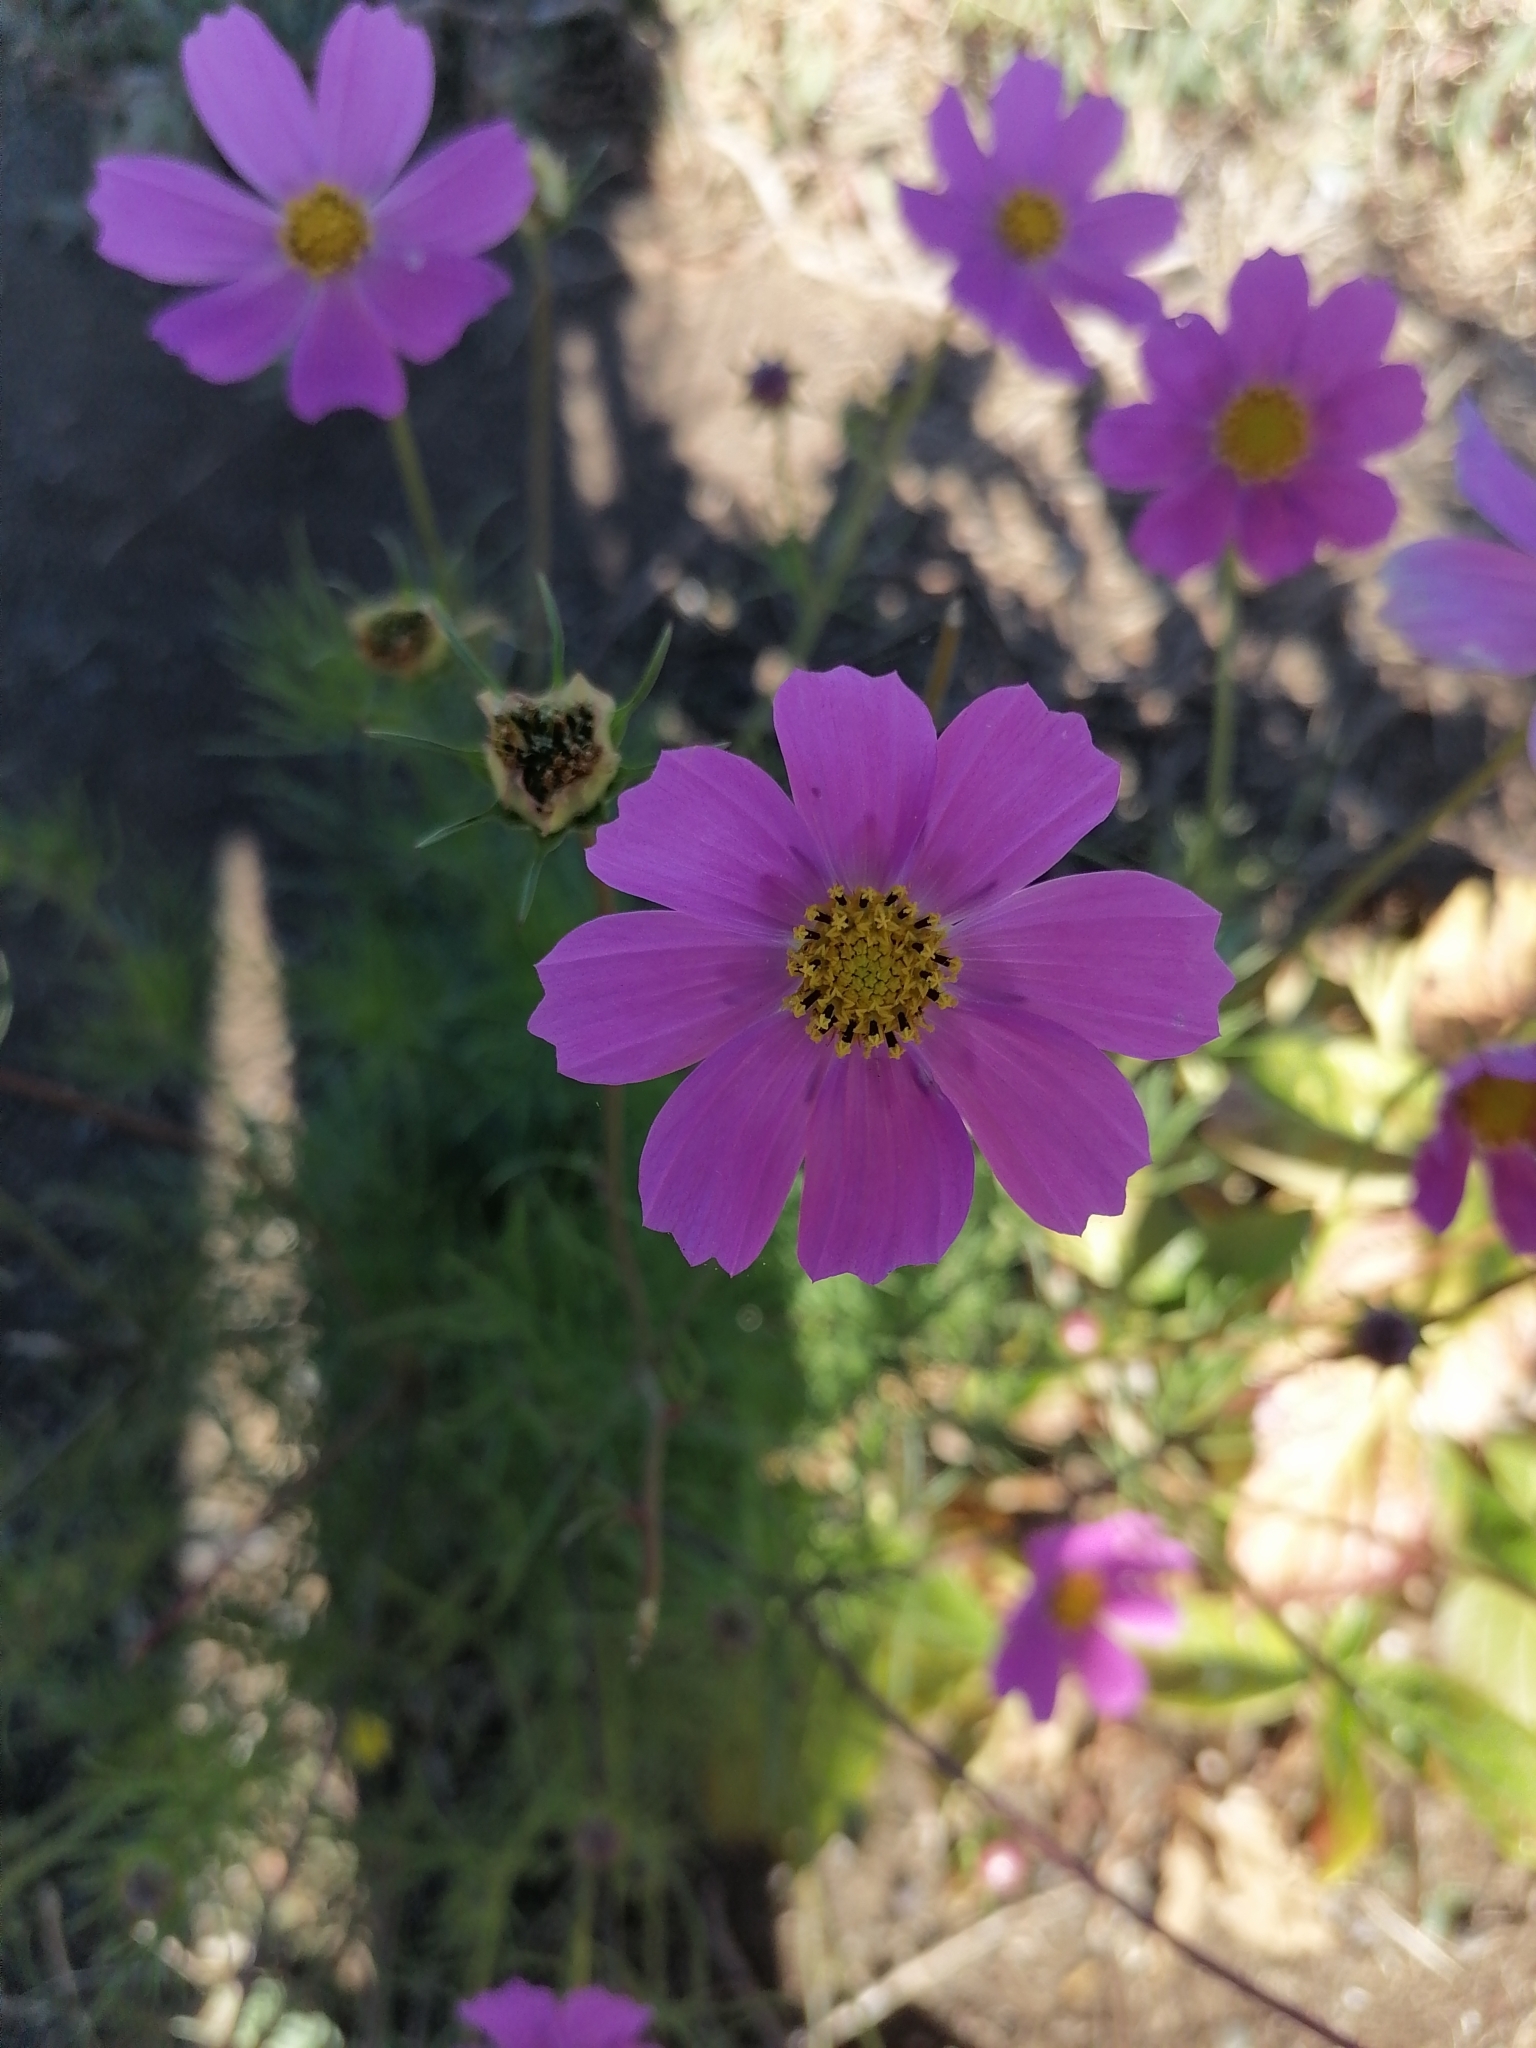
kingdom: Plantae
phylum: Tracheophyta
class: Magnoliopsida
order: Asterales
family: Asteraceae
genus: Cosmos
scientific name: Cosmos bipinnatus
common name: Garden cosmos
